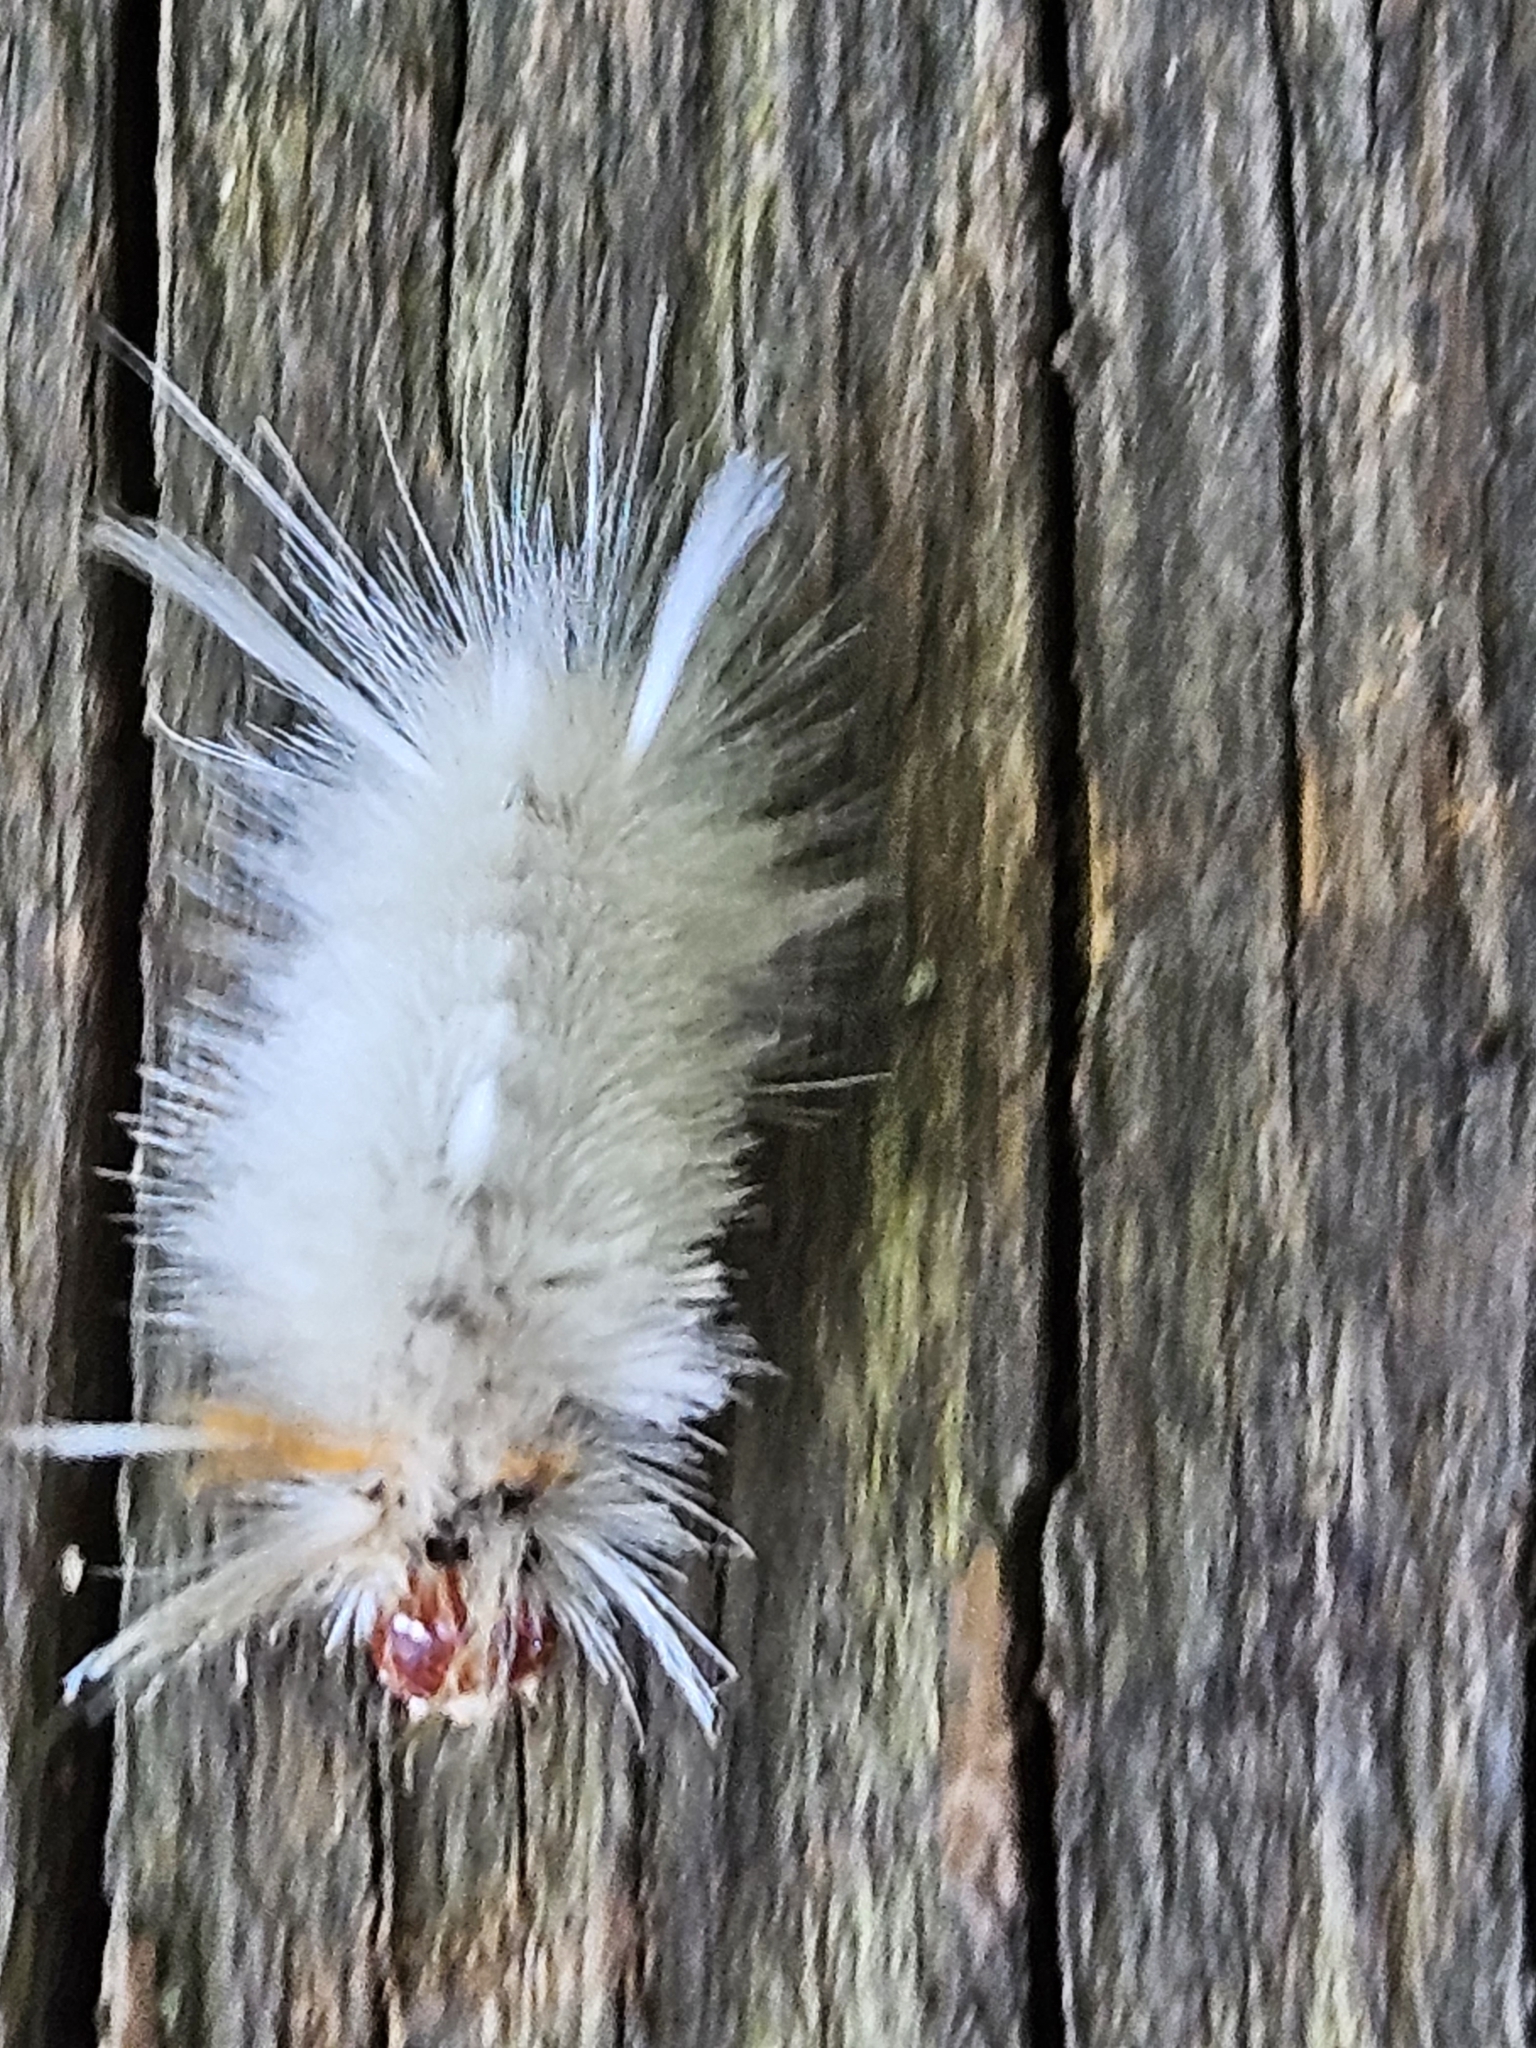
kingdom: Animalia
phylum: Arthropoda
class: Insecta
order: Lepidoptera
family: Erebidae
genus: Halysidota
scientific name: Halysidota harrisii
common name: Sycamore tussock moth
